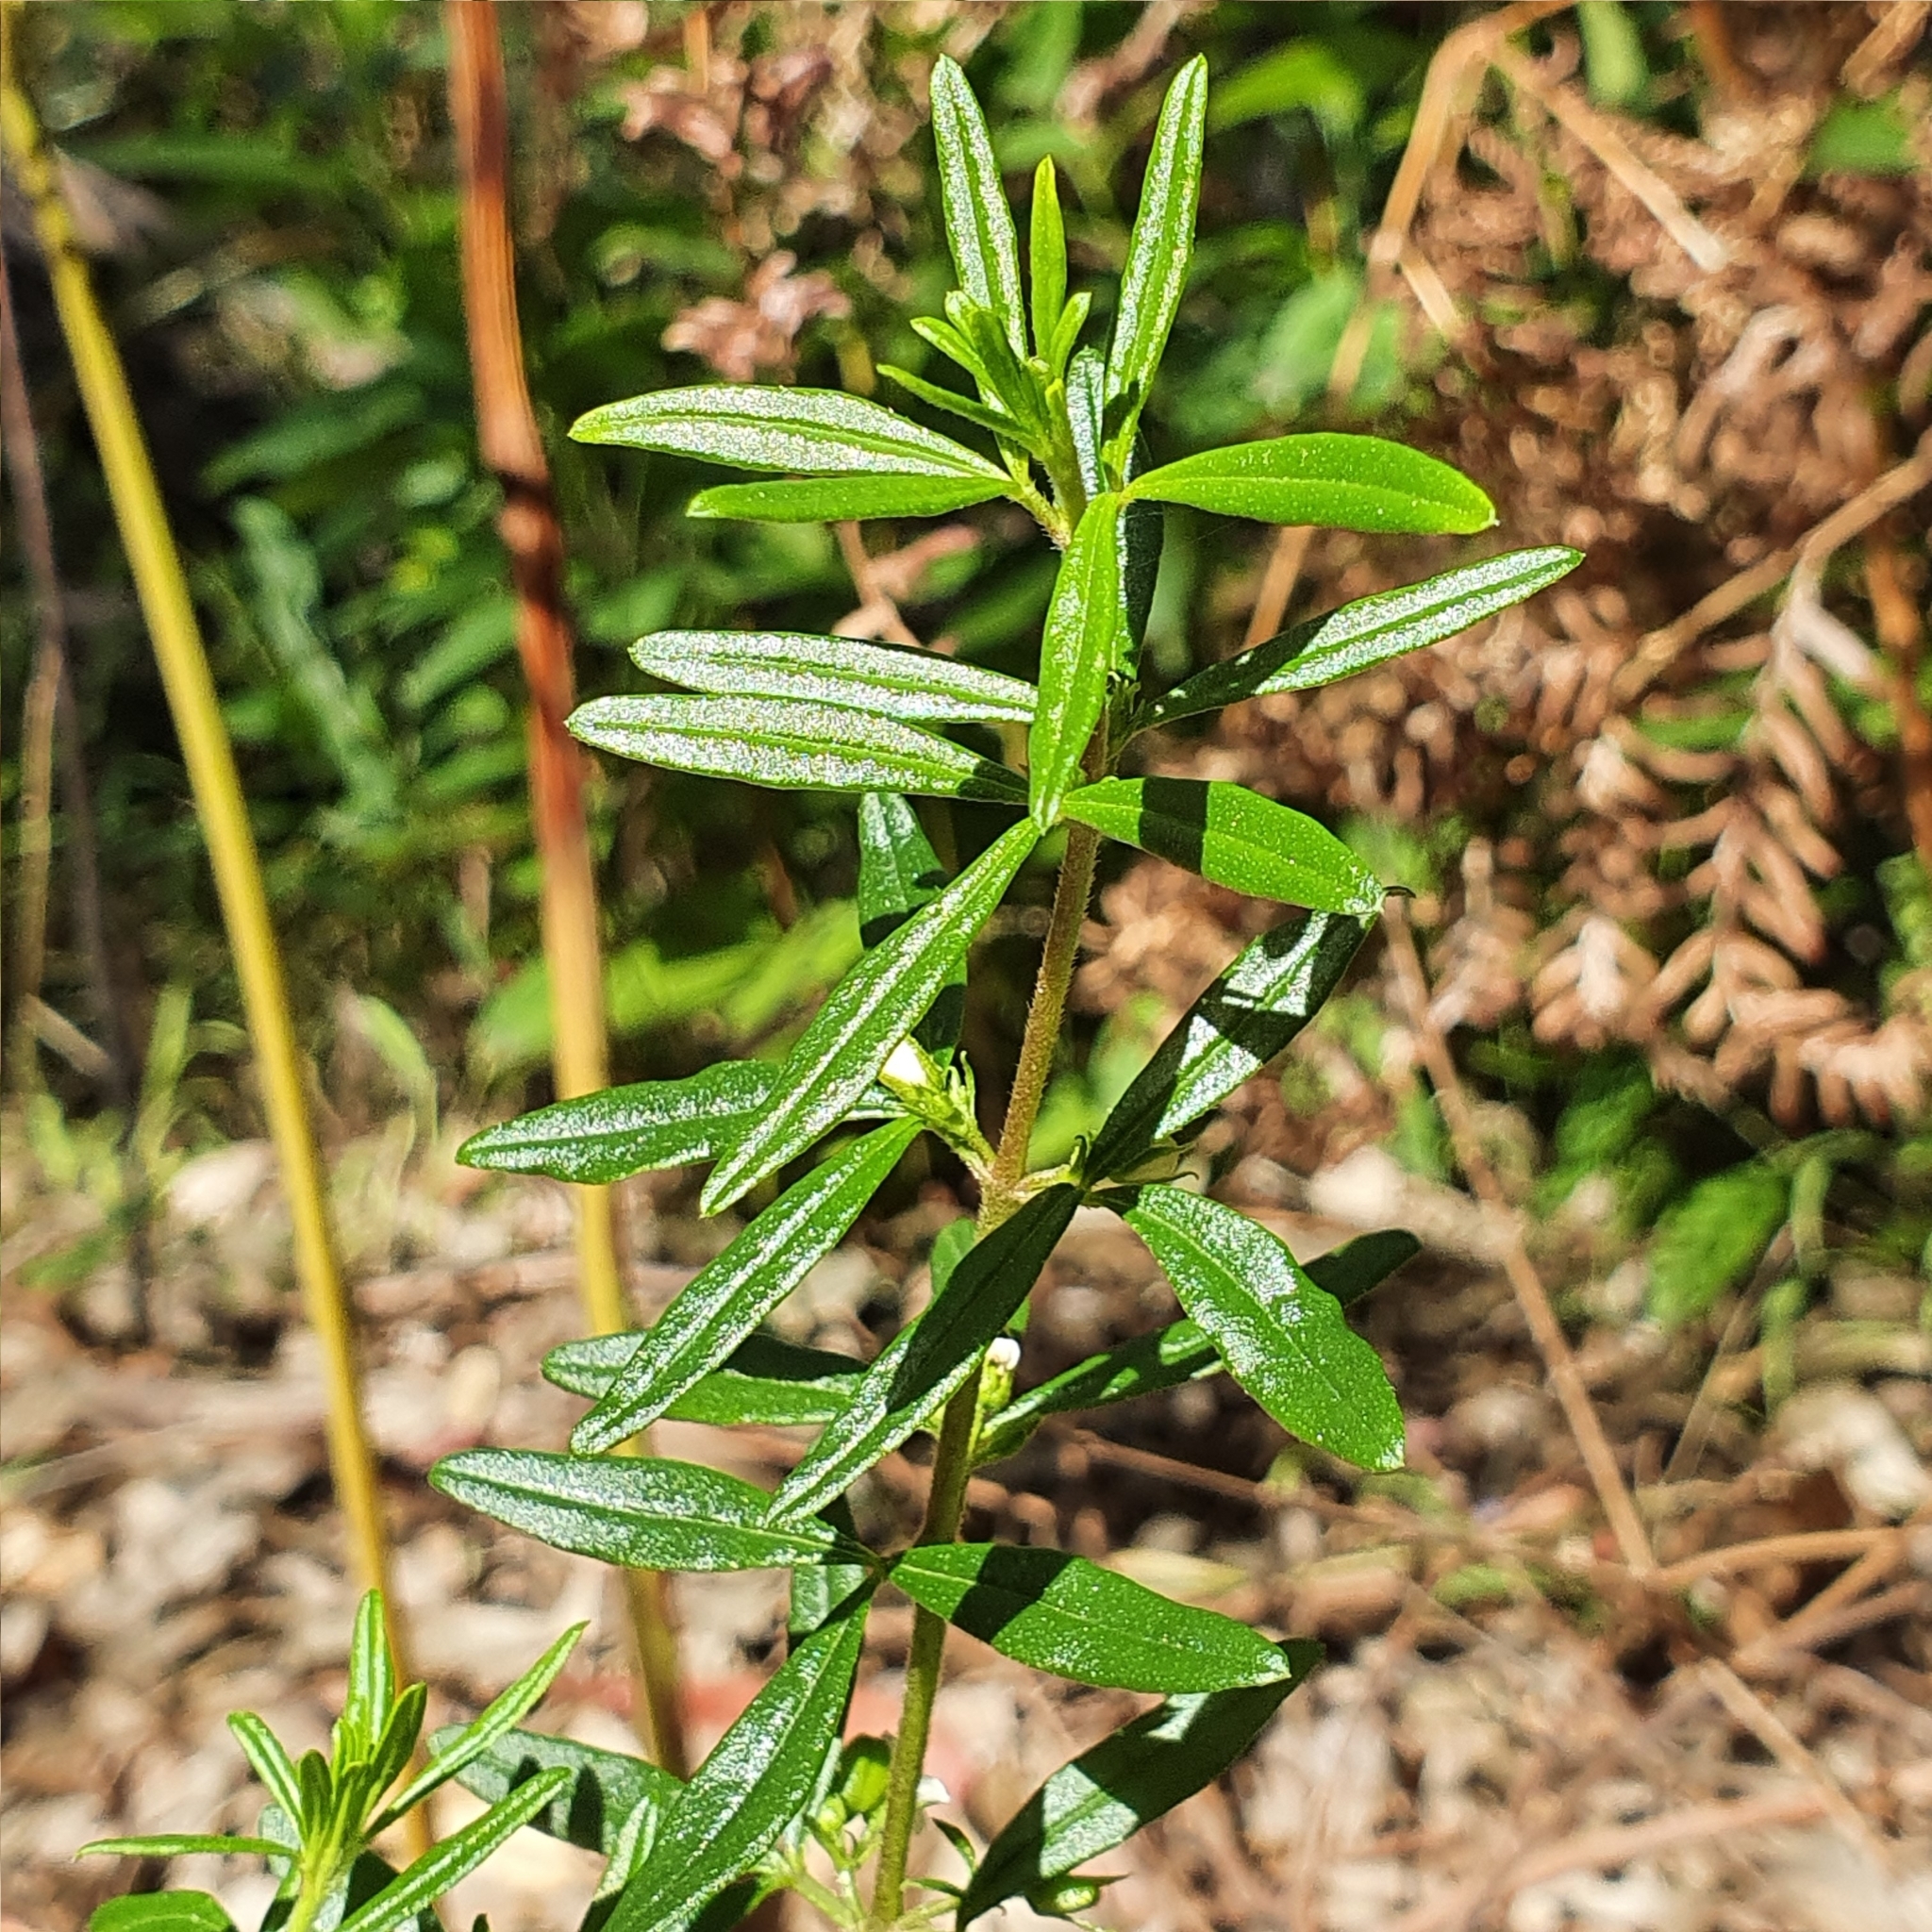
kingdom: Plantae
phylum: Tracheophyta
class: Magnoliopsida
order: Sapindales
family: Rutaceae
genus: Zieria
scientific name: Zieria pilosa
